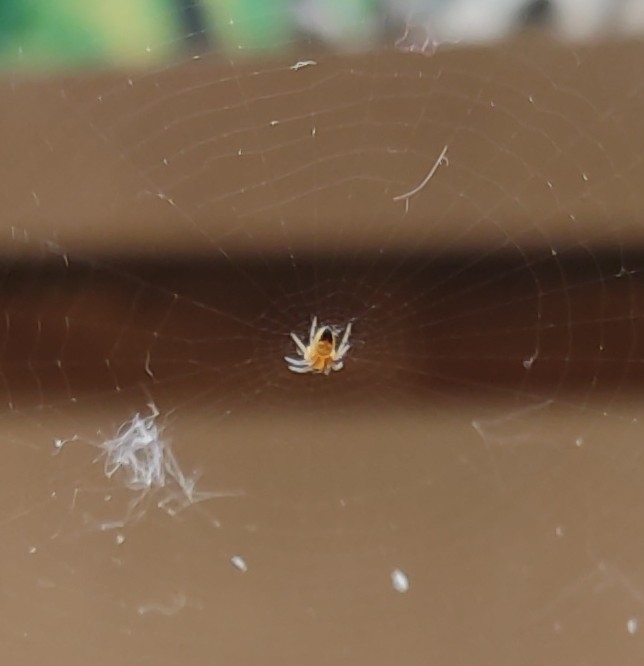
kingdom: Animalia
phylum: Arthropoda
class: Arachnida
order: Araneae
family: Araneidae
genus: Araneus
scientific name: Araneus diadematus
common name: Cross orbweaver
